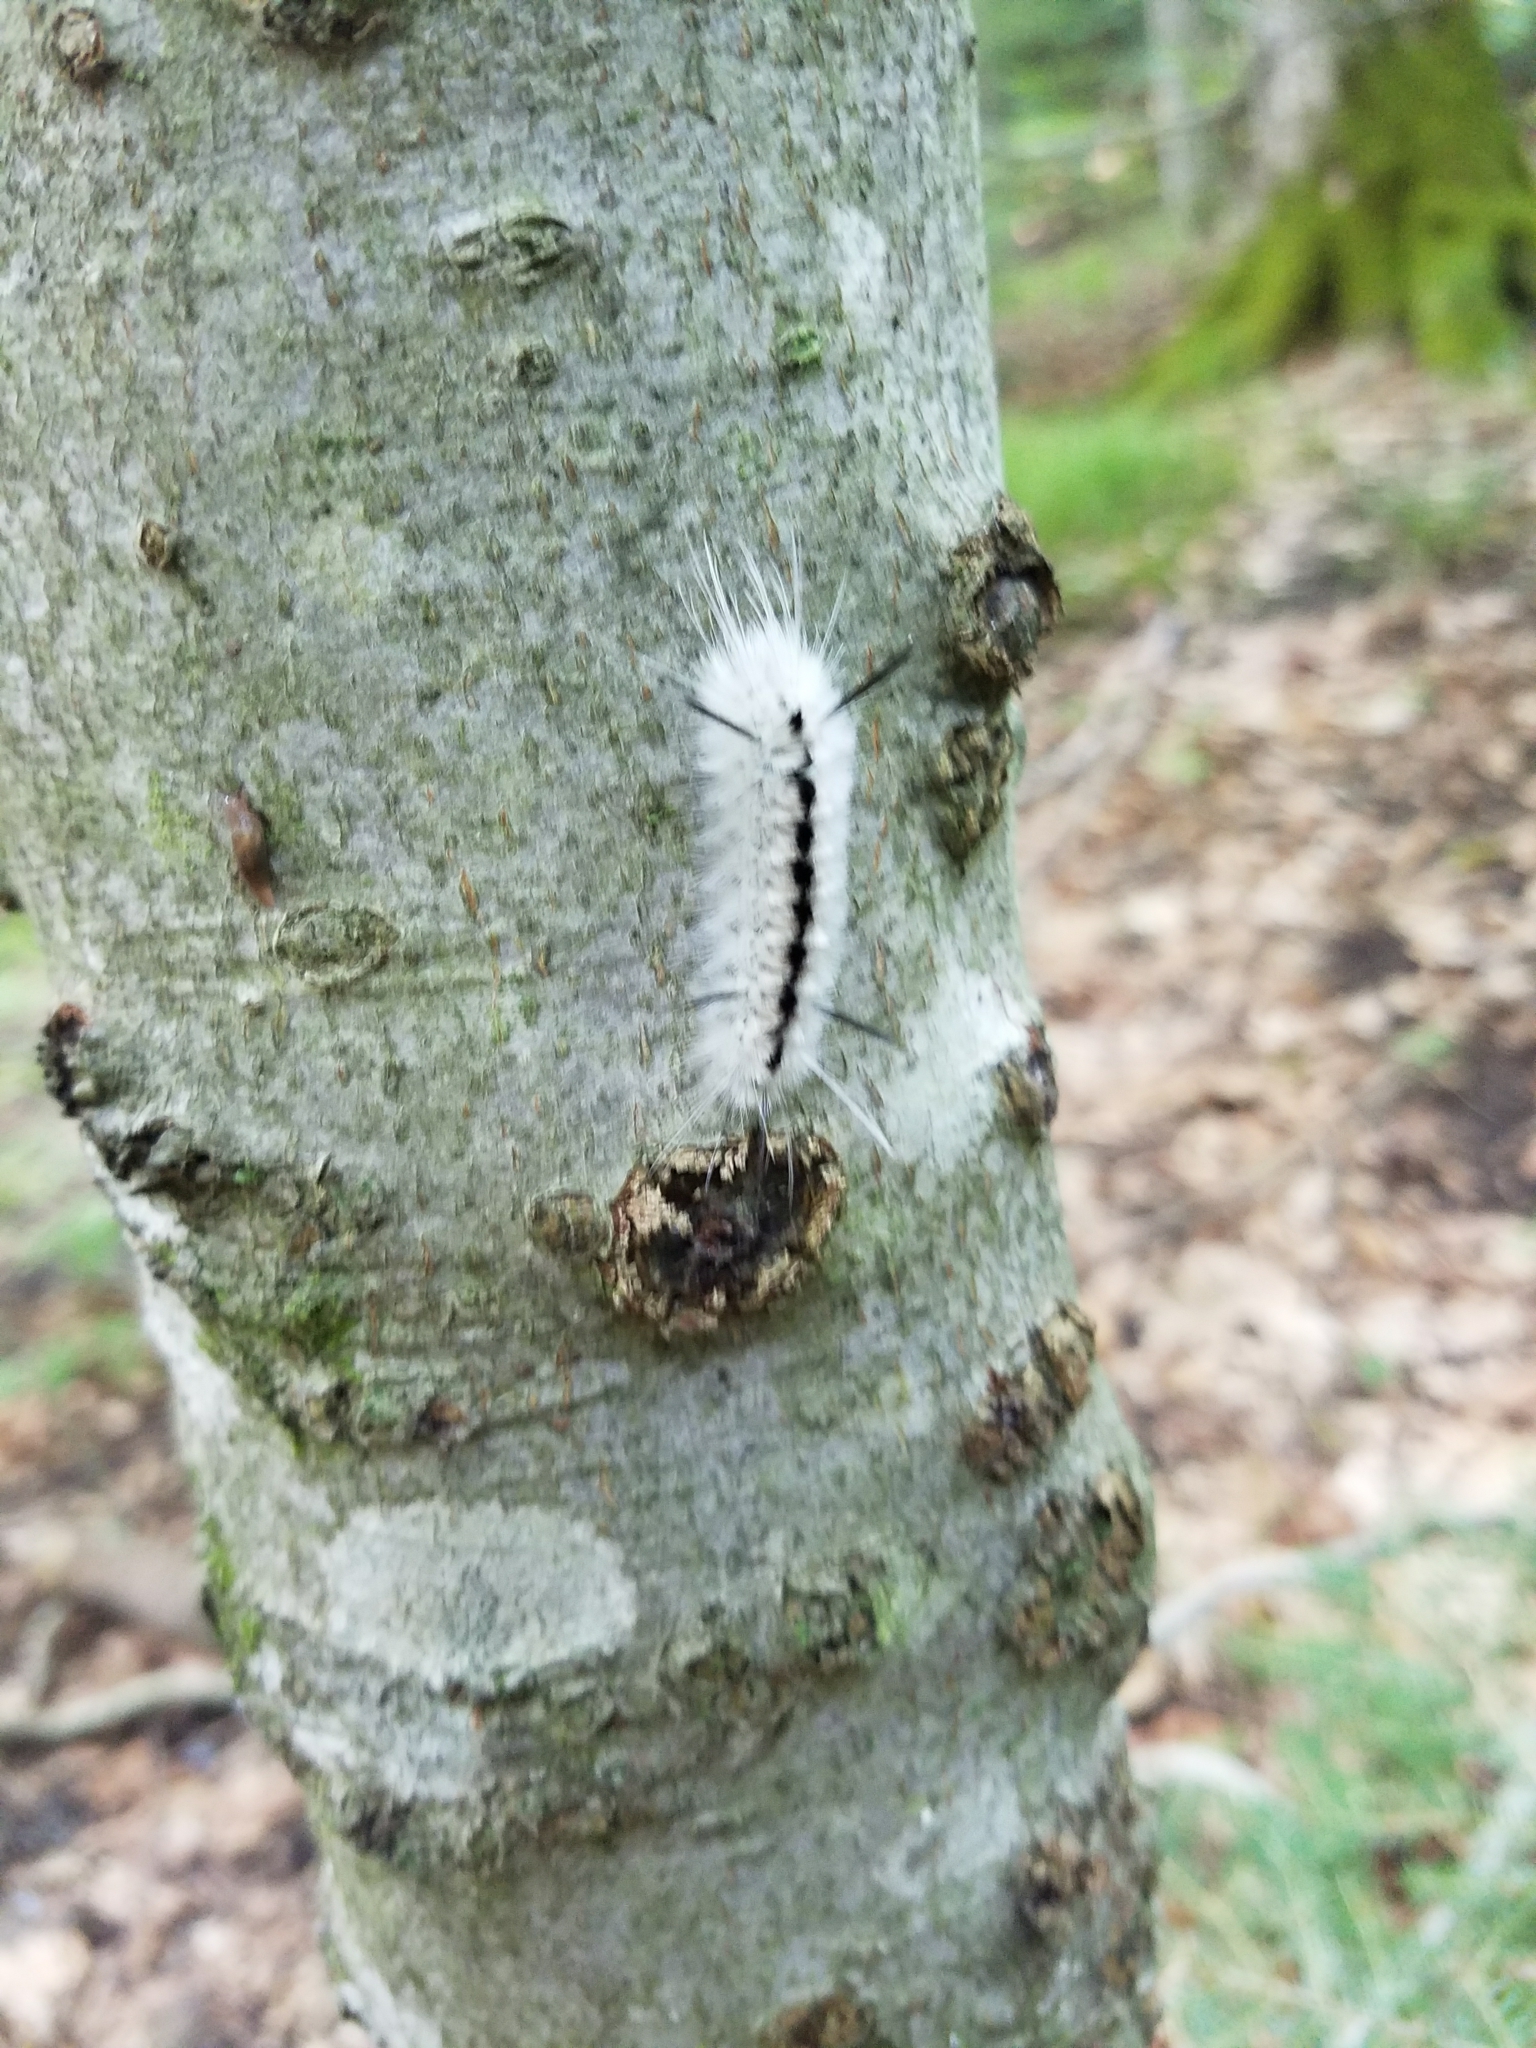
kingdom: Animalia
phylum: Arthropoda
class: Insecta
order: Lepidoptera
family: Erebidae
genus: Lophocampa
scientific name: Lophocampa caryae
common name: Hickory tussock moth
